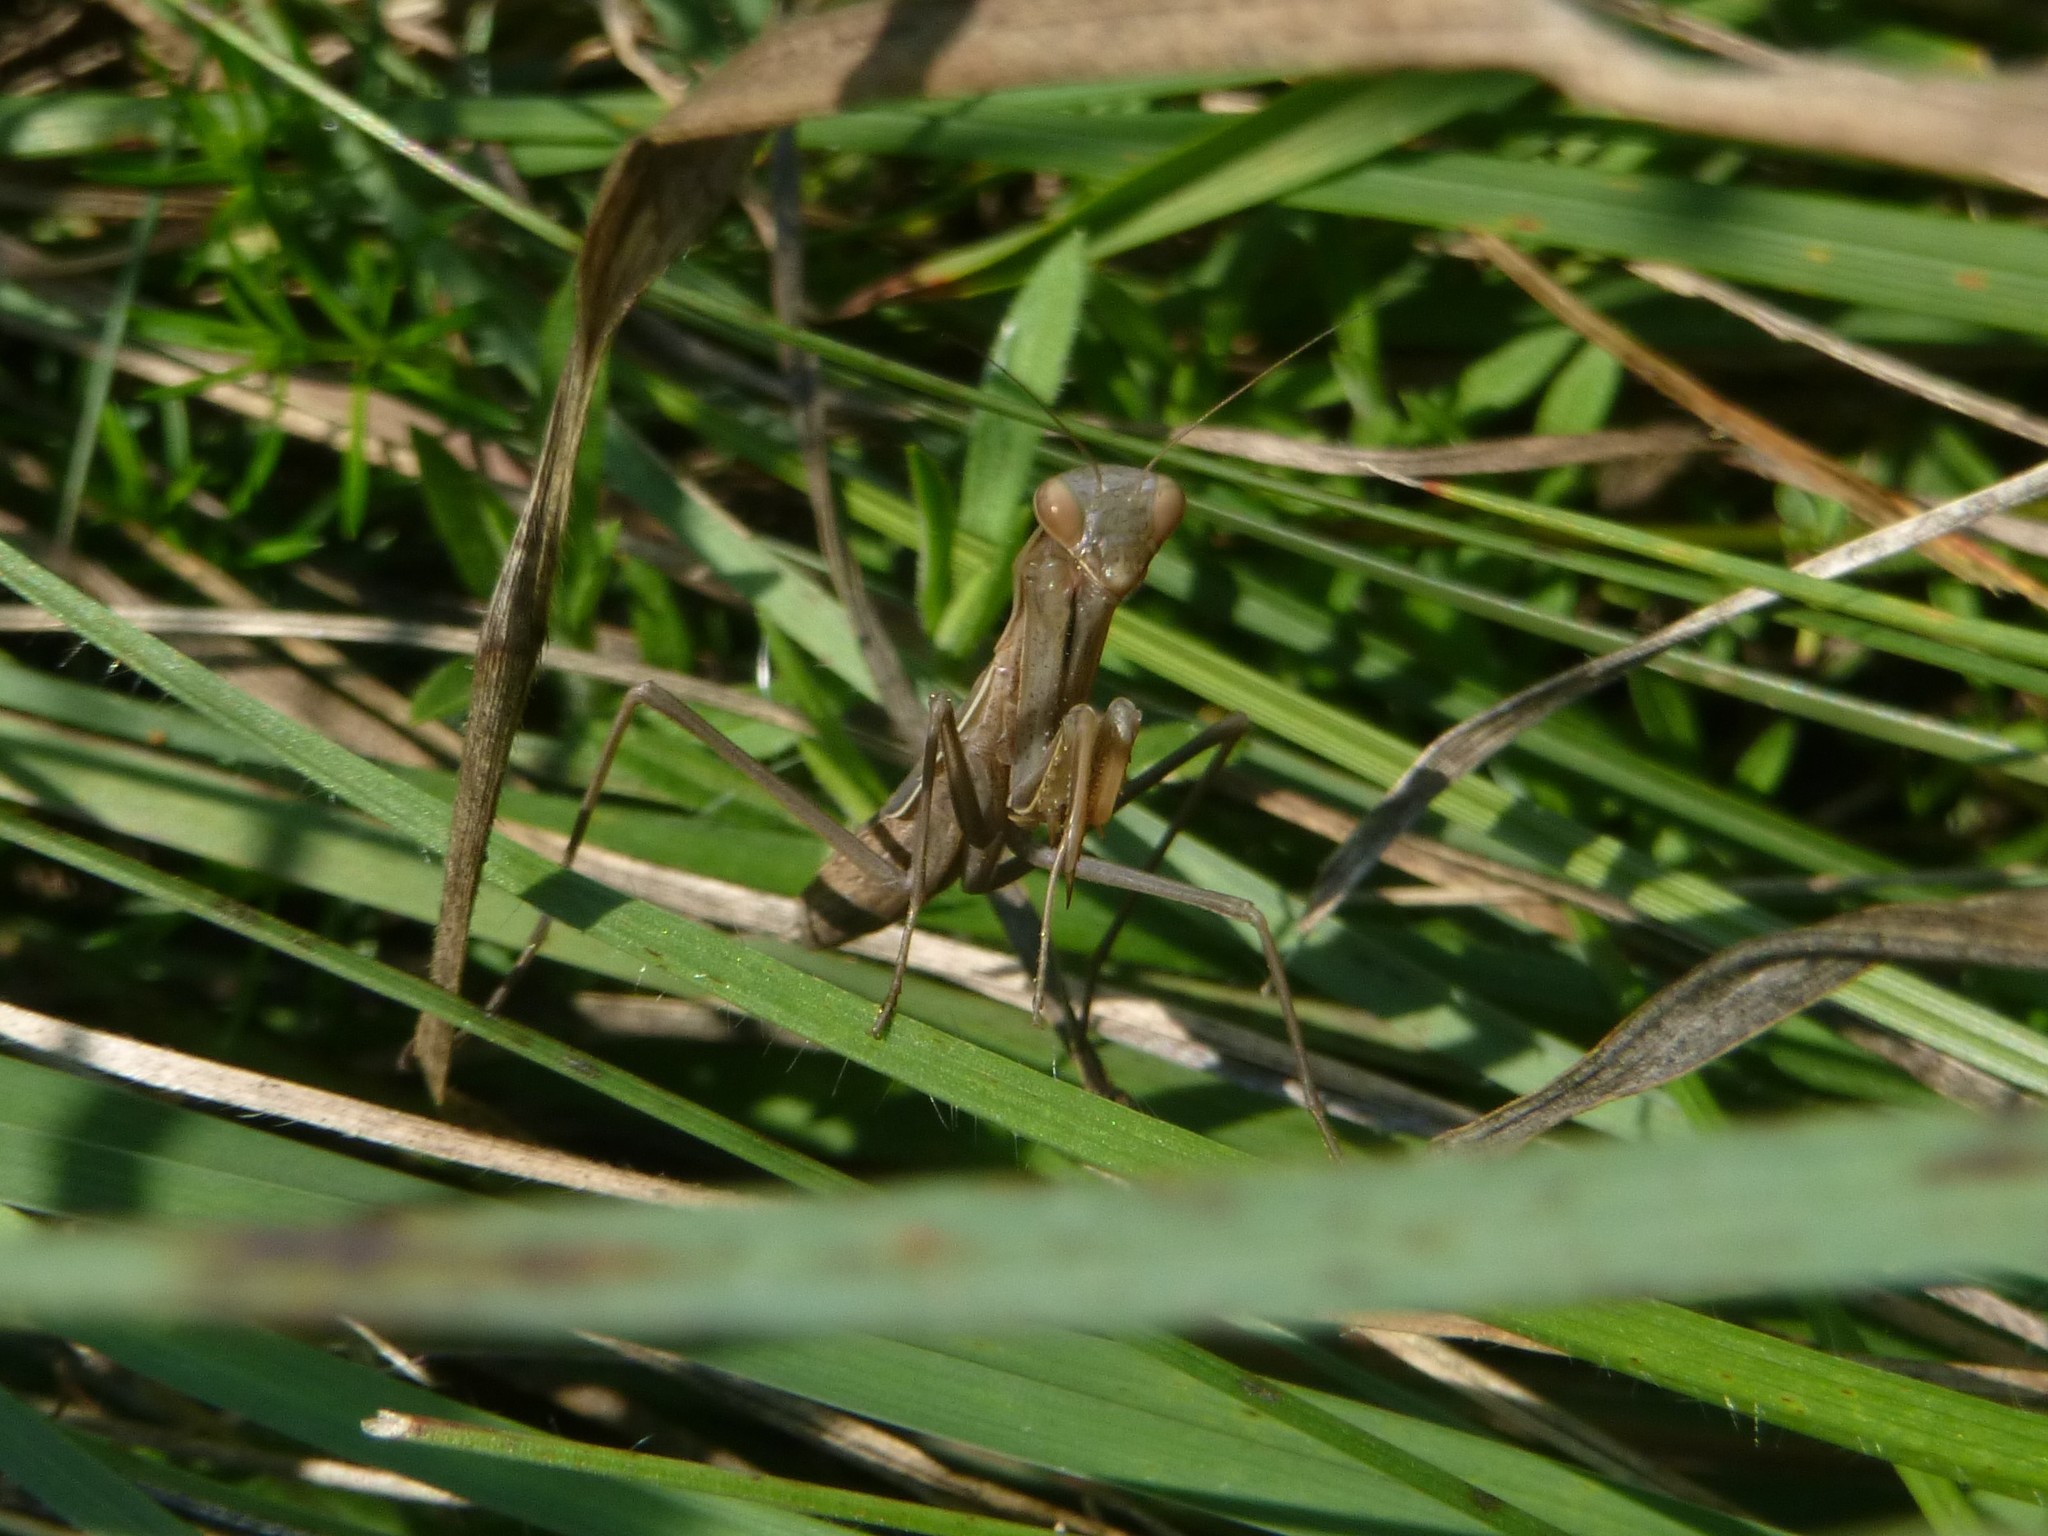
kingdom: Animalia
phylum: Arthropoda
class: Insecta
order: Mantodea
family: Mantidae
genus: Mantis
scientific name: Mantis religiosa
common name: Praying mantis
